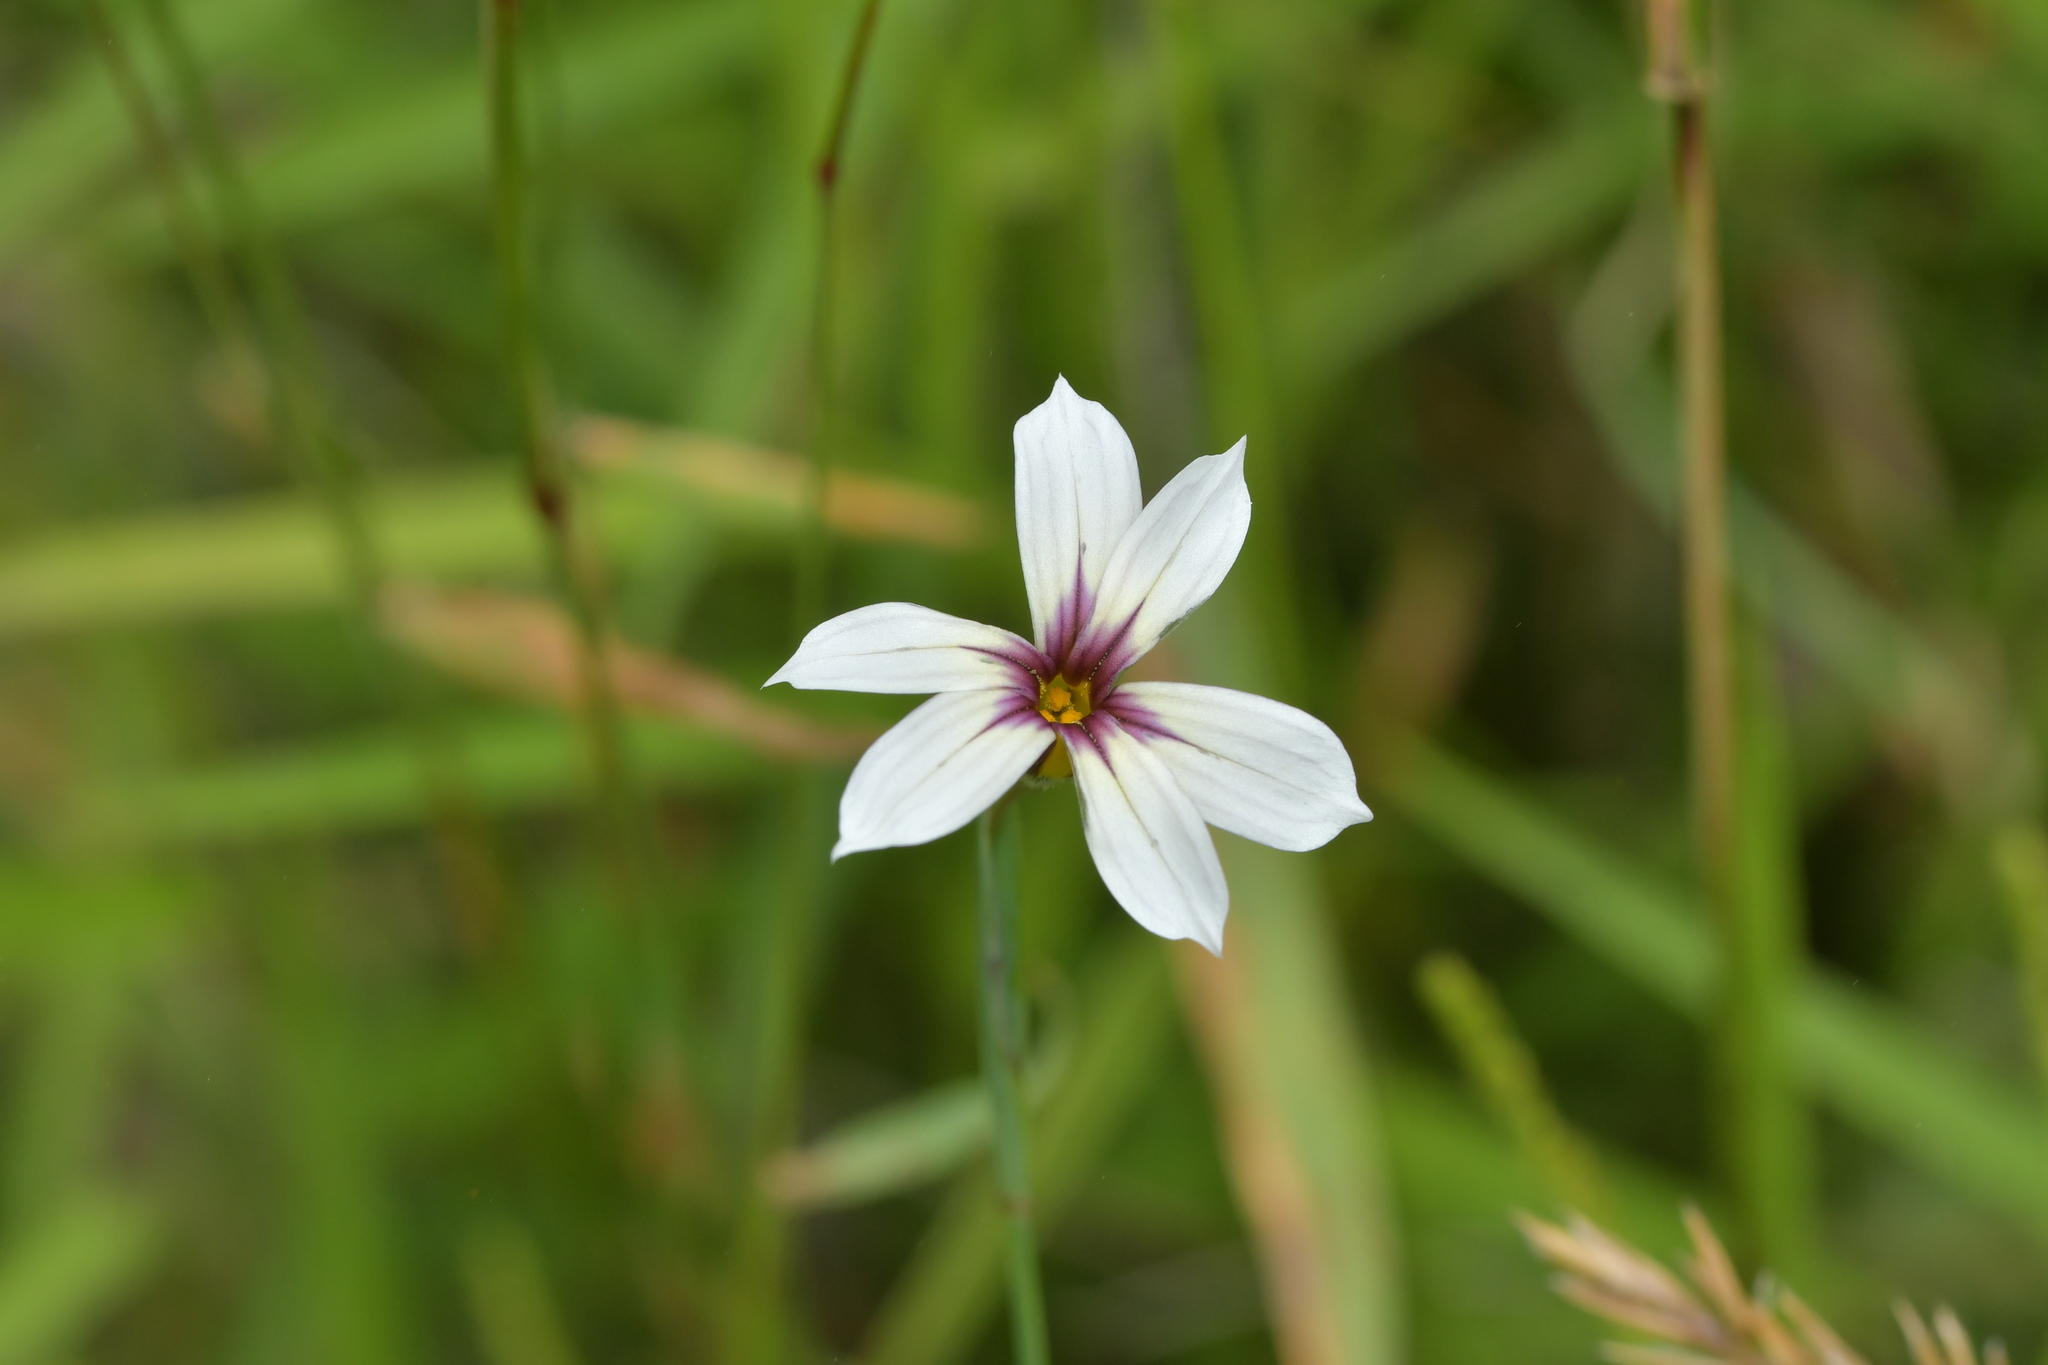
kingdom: Plantae
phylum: Tracheophyta
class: Liliopsida
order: Asparagales
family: Iridaceae
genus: Sisyrinchium
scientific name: Sisyrinchium micranthum
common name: Bermuda pigroot
